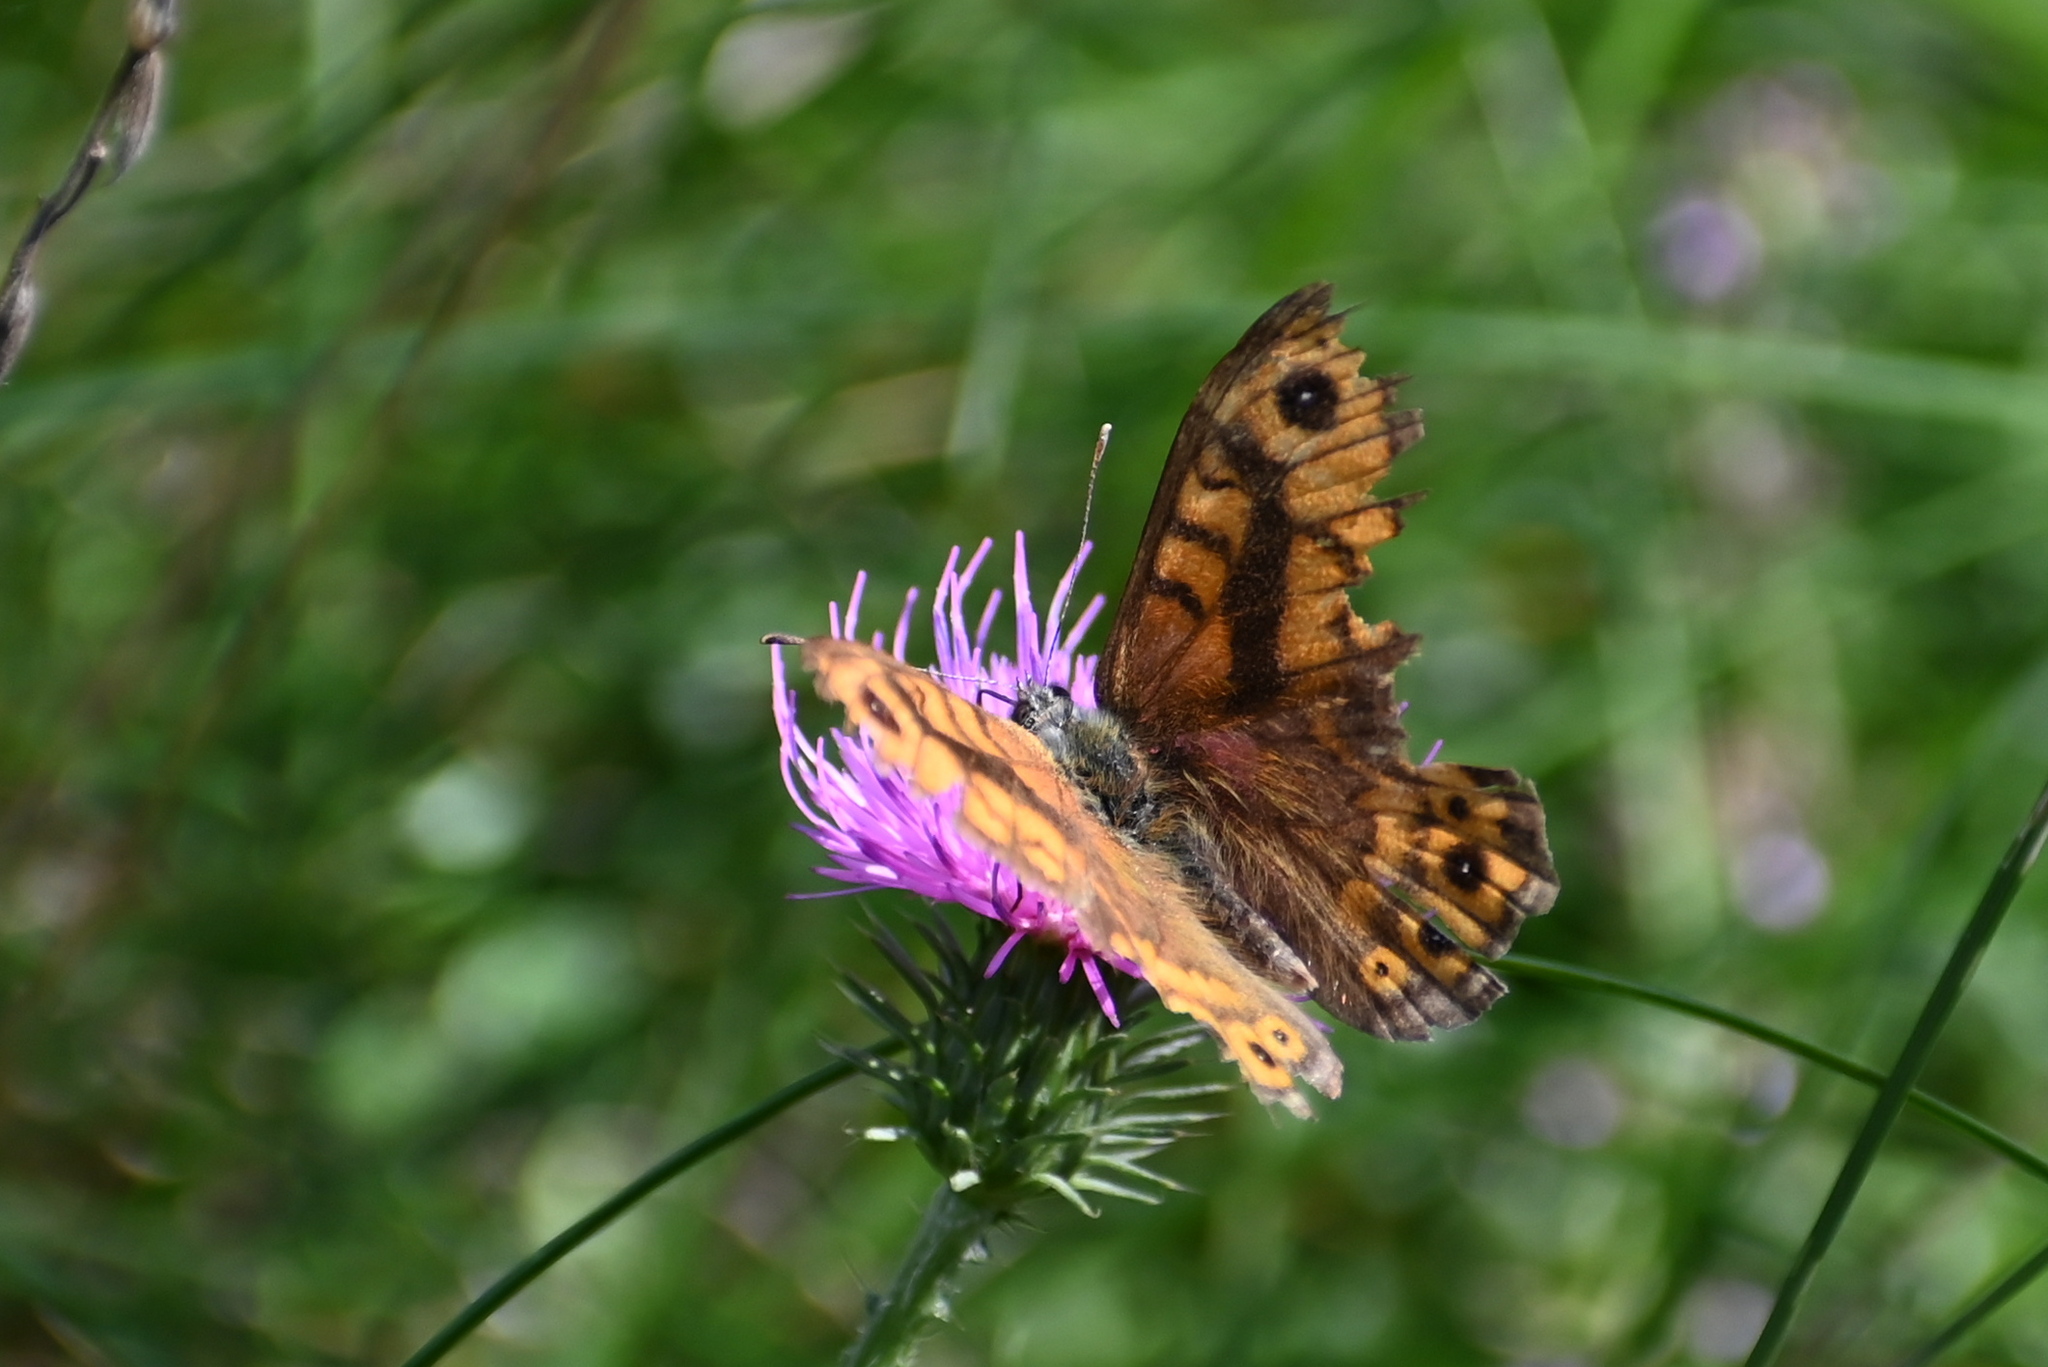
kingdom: Animalia
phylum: Arthropoda
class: Insecta
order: Lepidoptera
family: Nymphalidae
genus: Pararge
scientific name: Pararge Lasiommata megera
